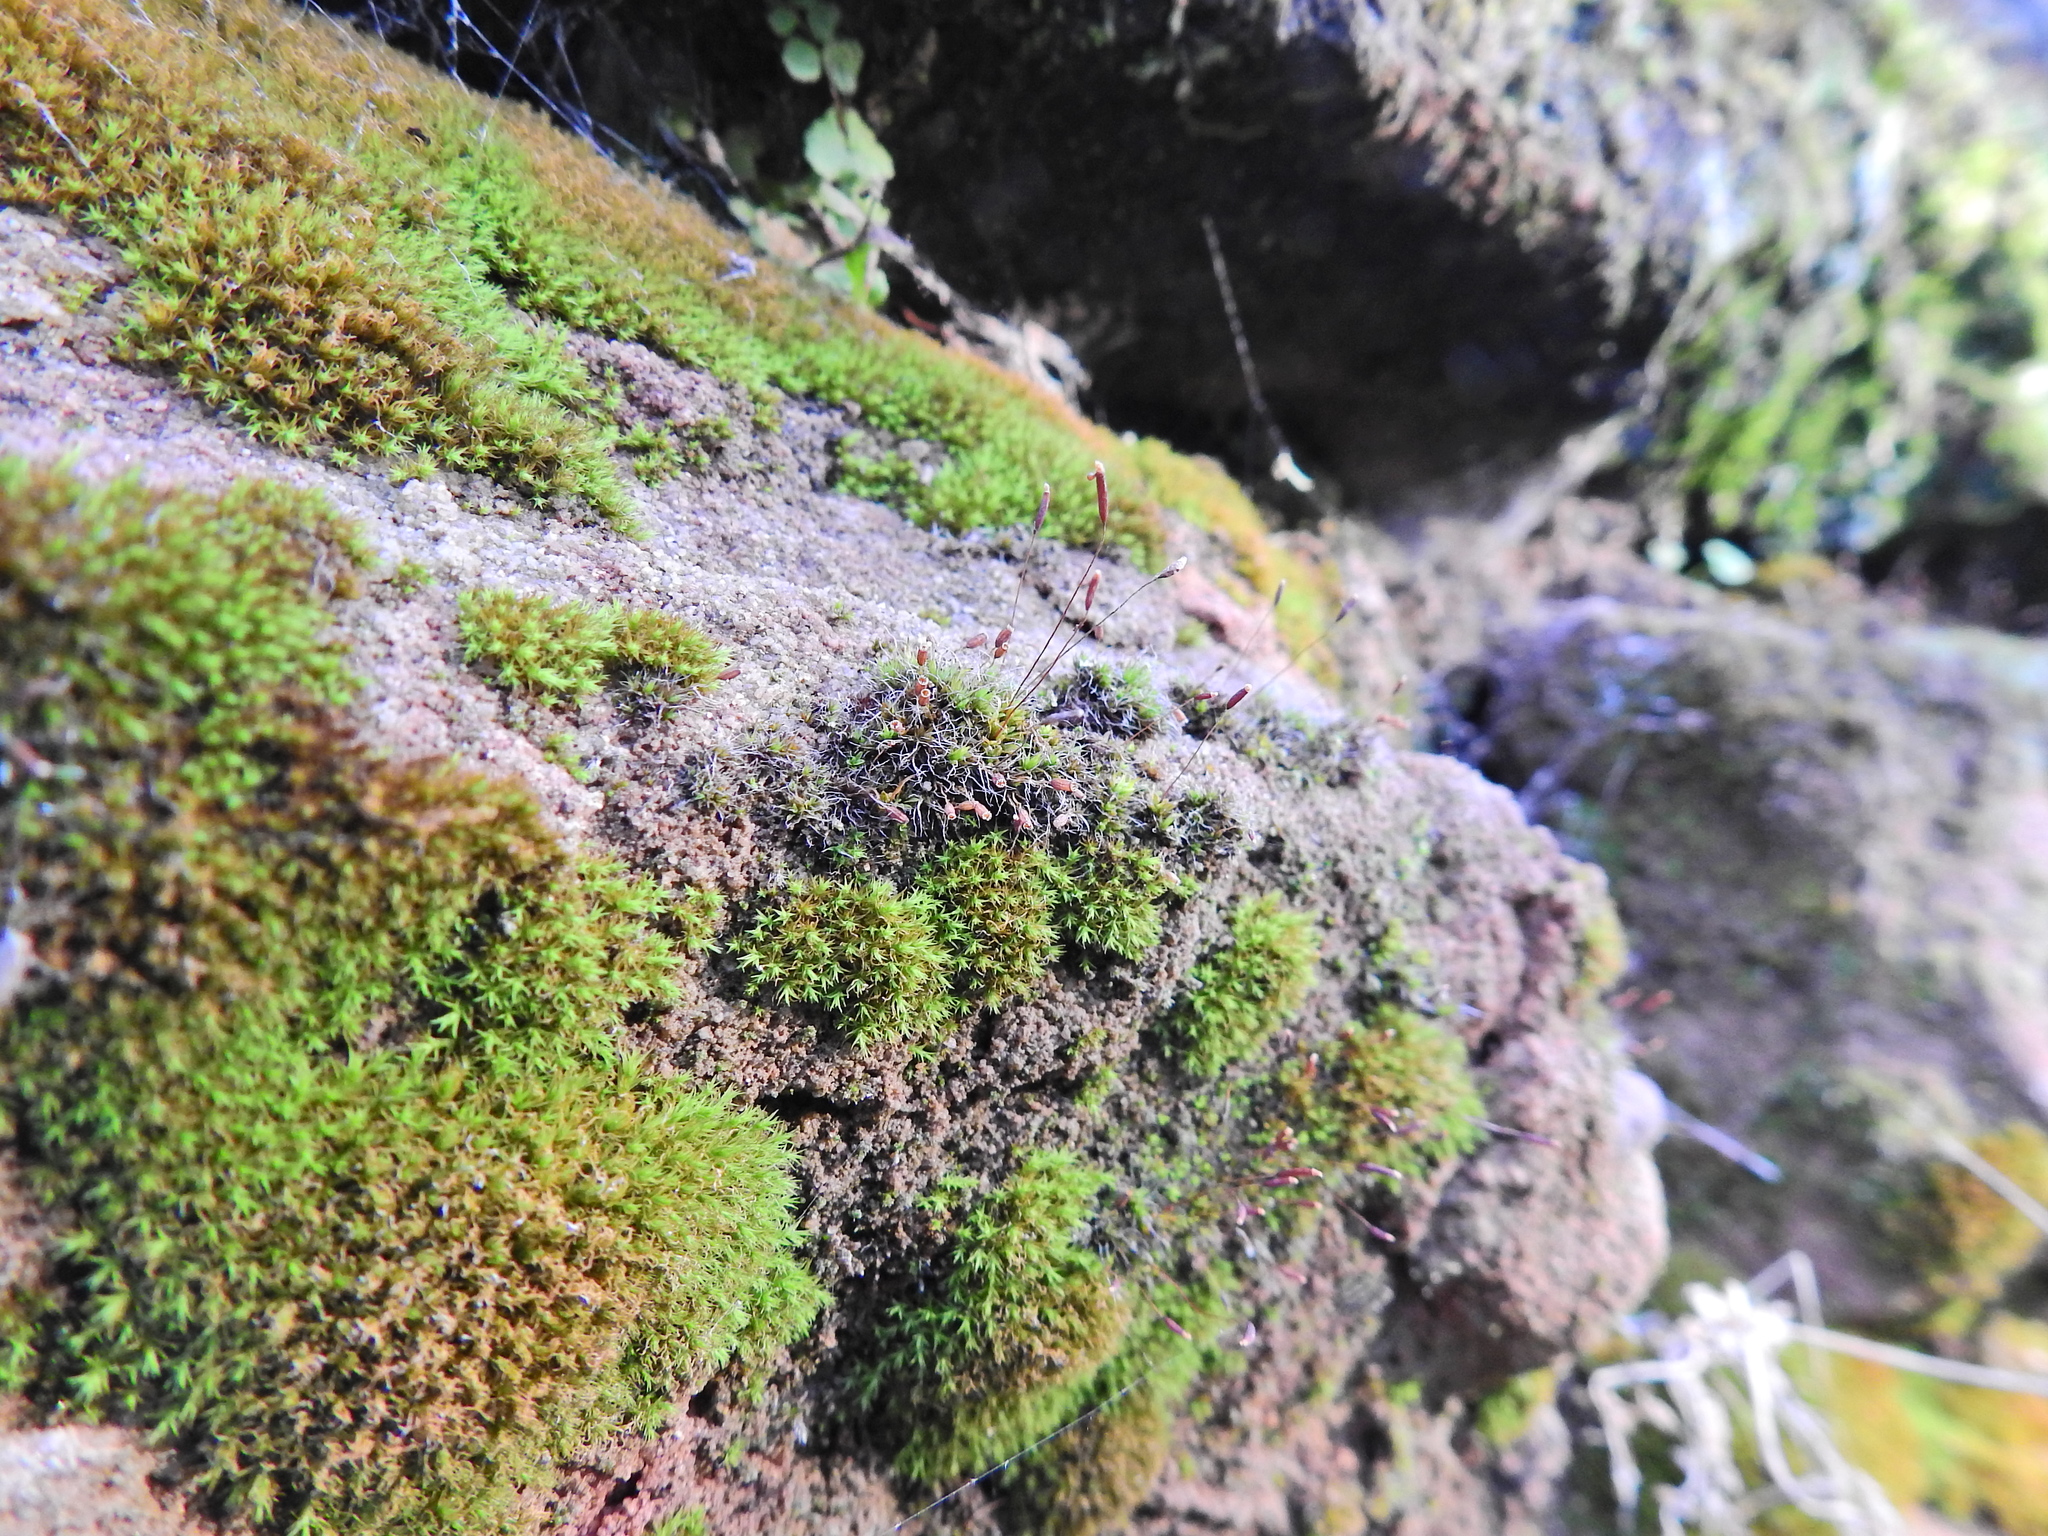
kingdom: Plantae
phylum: Bryophyta
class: Bryopsida
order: Pottiales
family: Pottiaceae
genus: Tortula
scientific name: Tortula muralis
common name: Wall screw-moss
